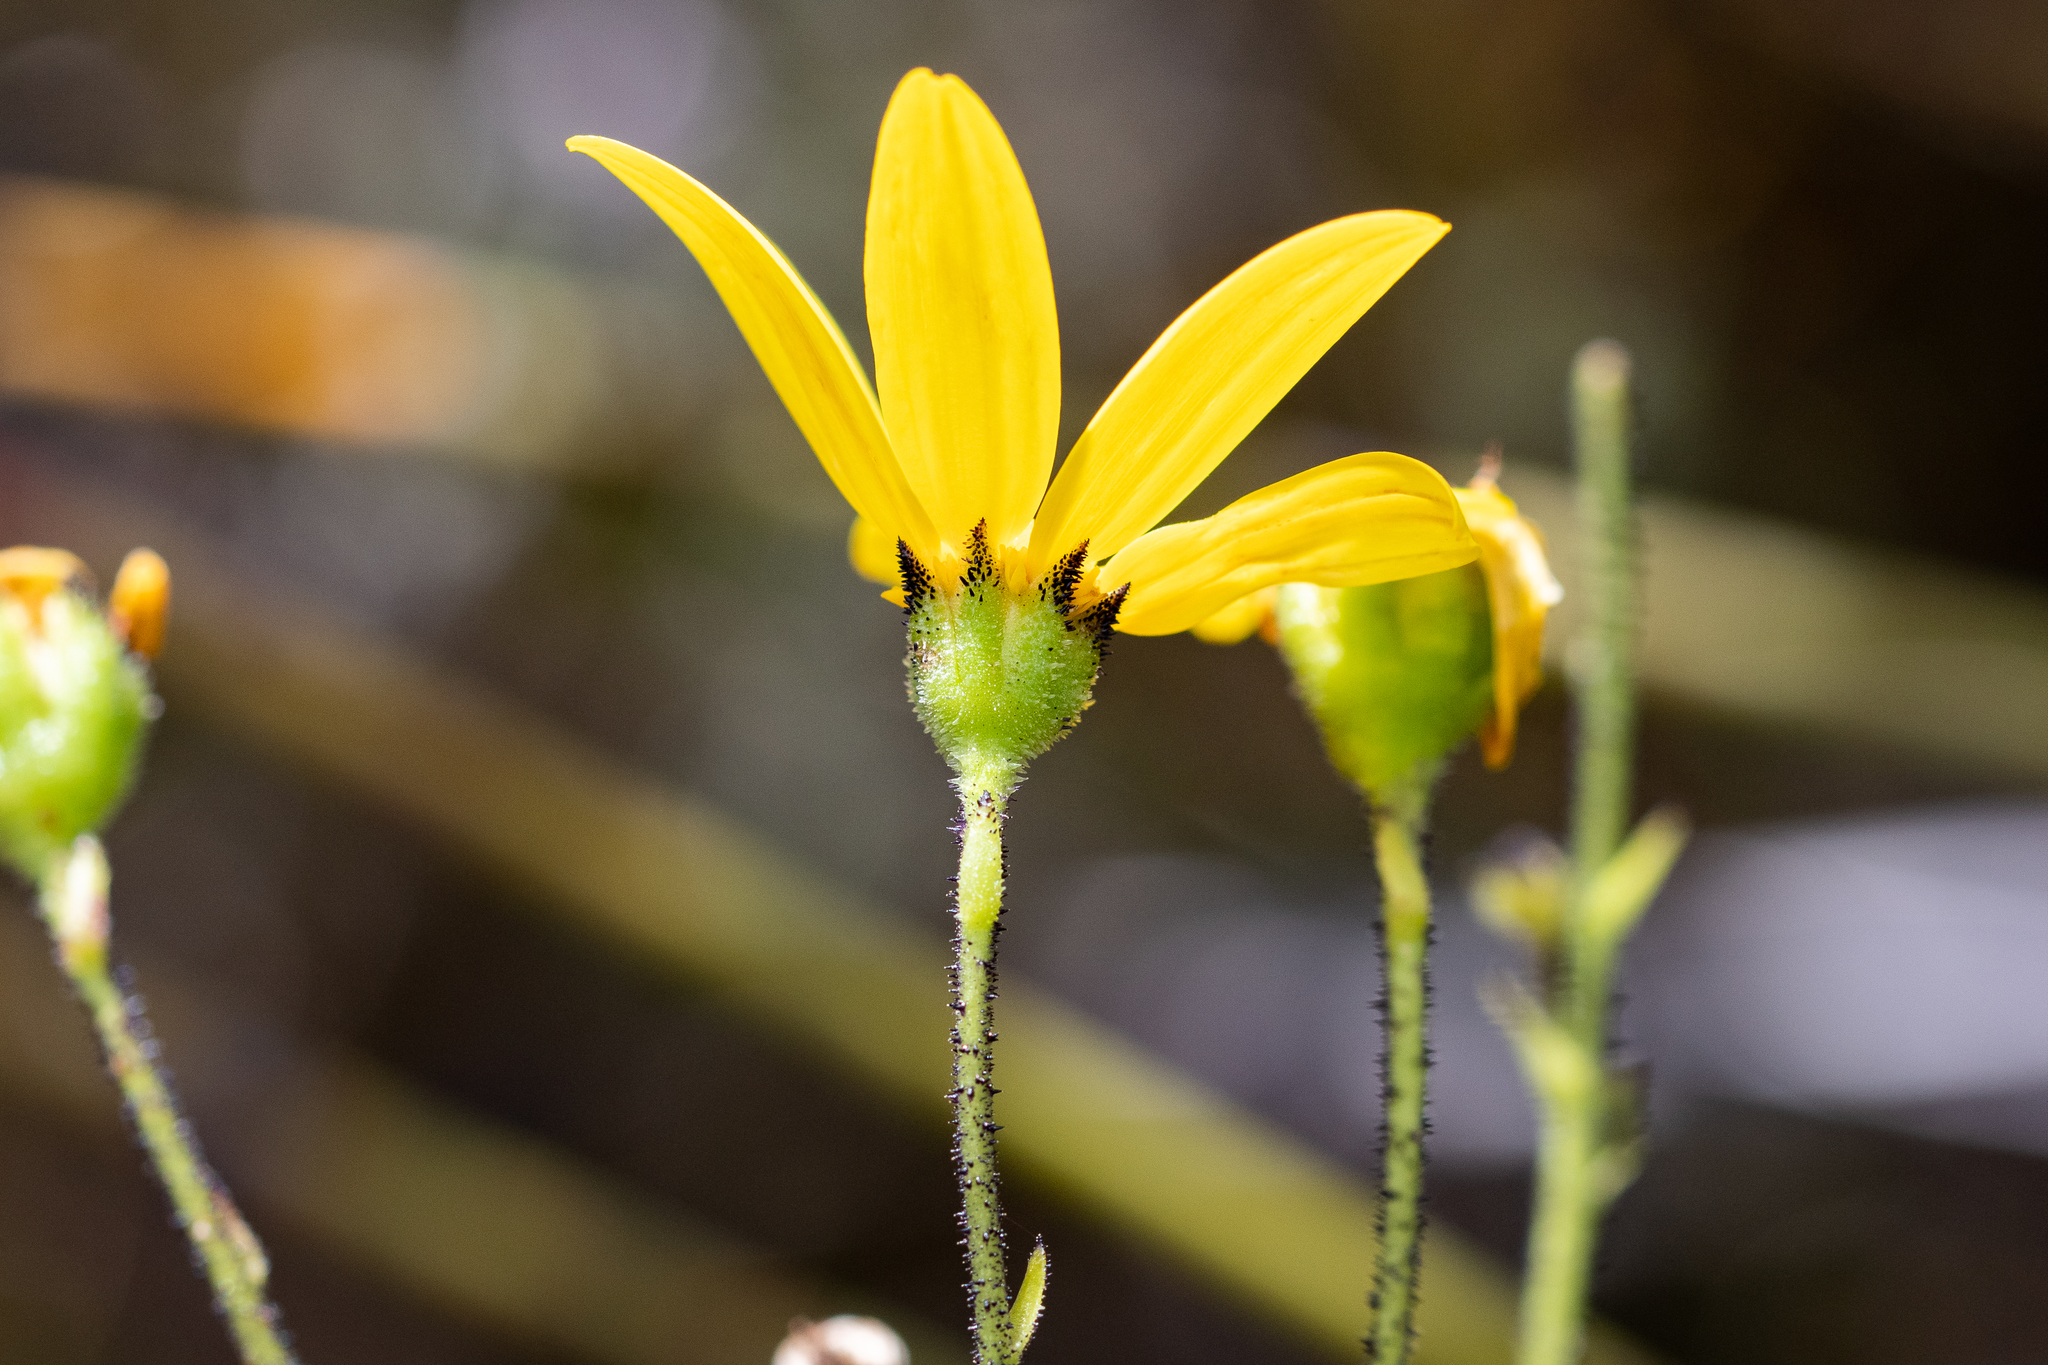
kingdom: Plantae
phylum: Tracheophyta
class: Magnoliopsida
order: Asterales
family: Asteraceae
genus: Osteospermum
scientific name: Osteospermum rotundifolium
